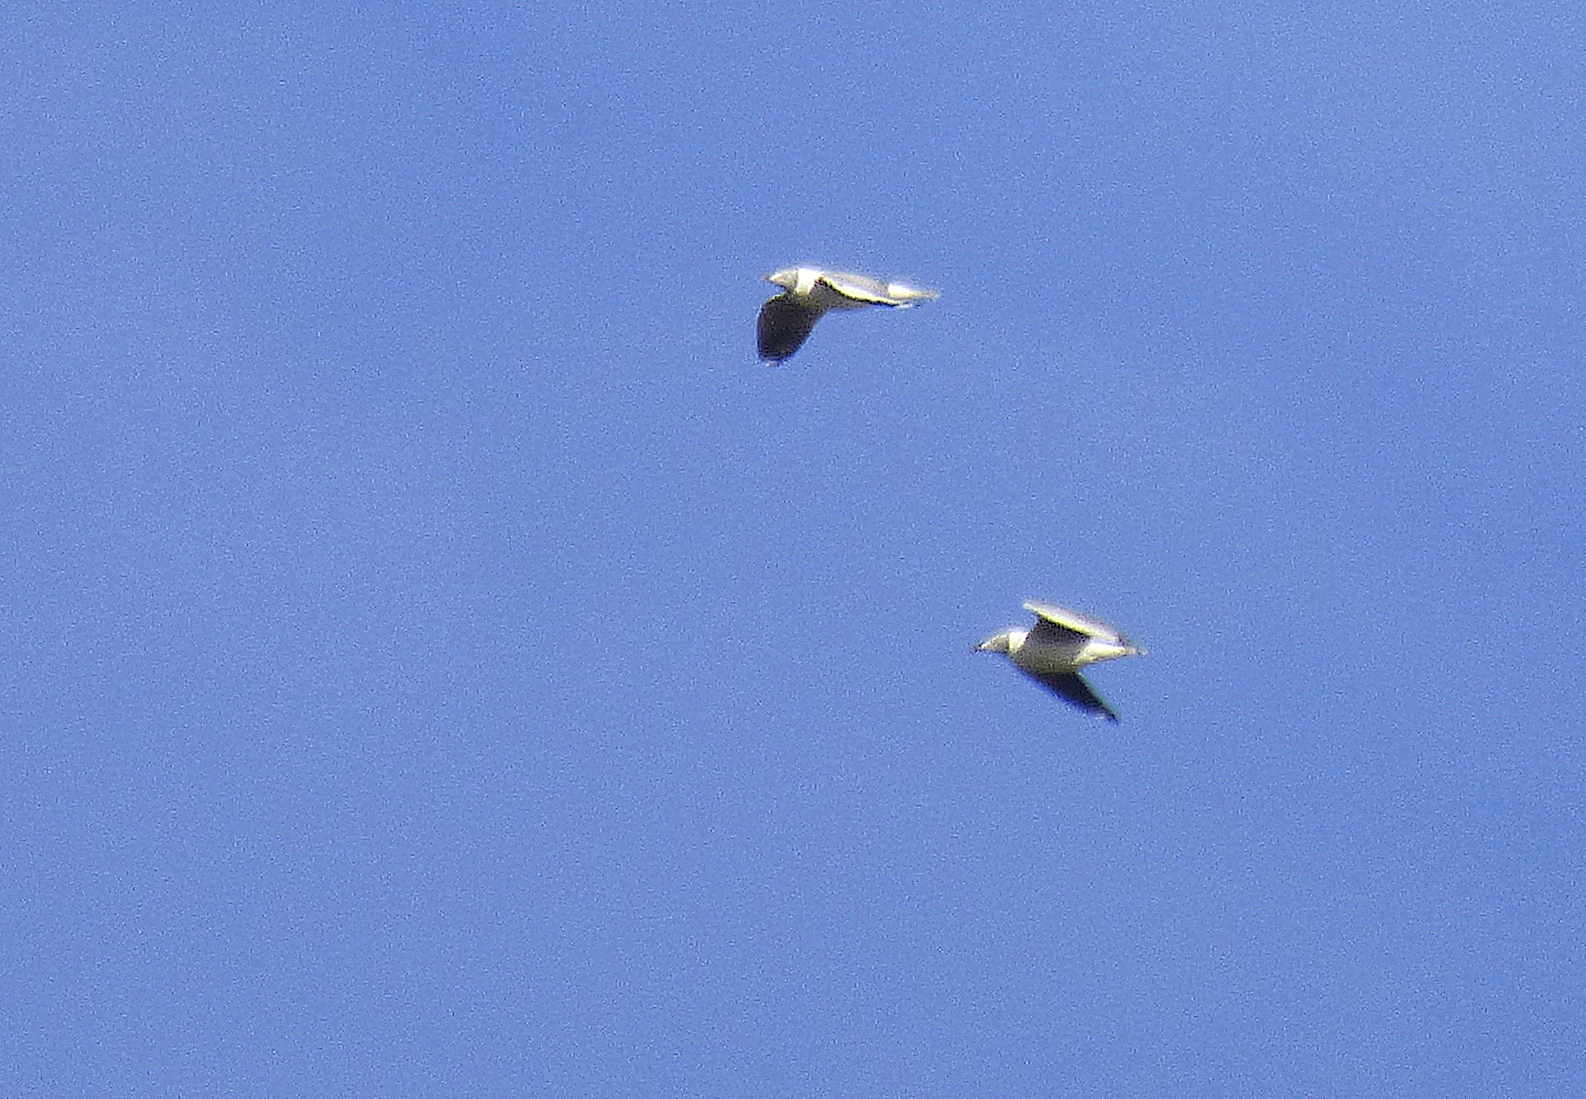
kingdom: Animalia
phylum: Chordata
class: Aves
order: Charadriiformes
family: Laridae
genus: Chroicocephalus
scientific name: Chroicocephalus cirrocephalus
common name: Grey-headed gull
